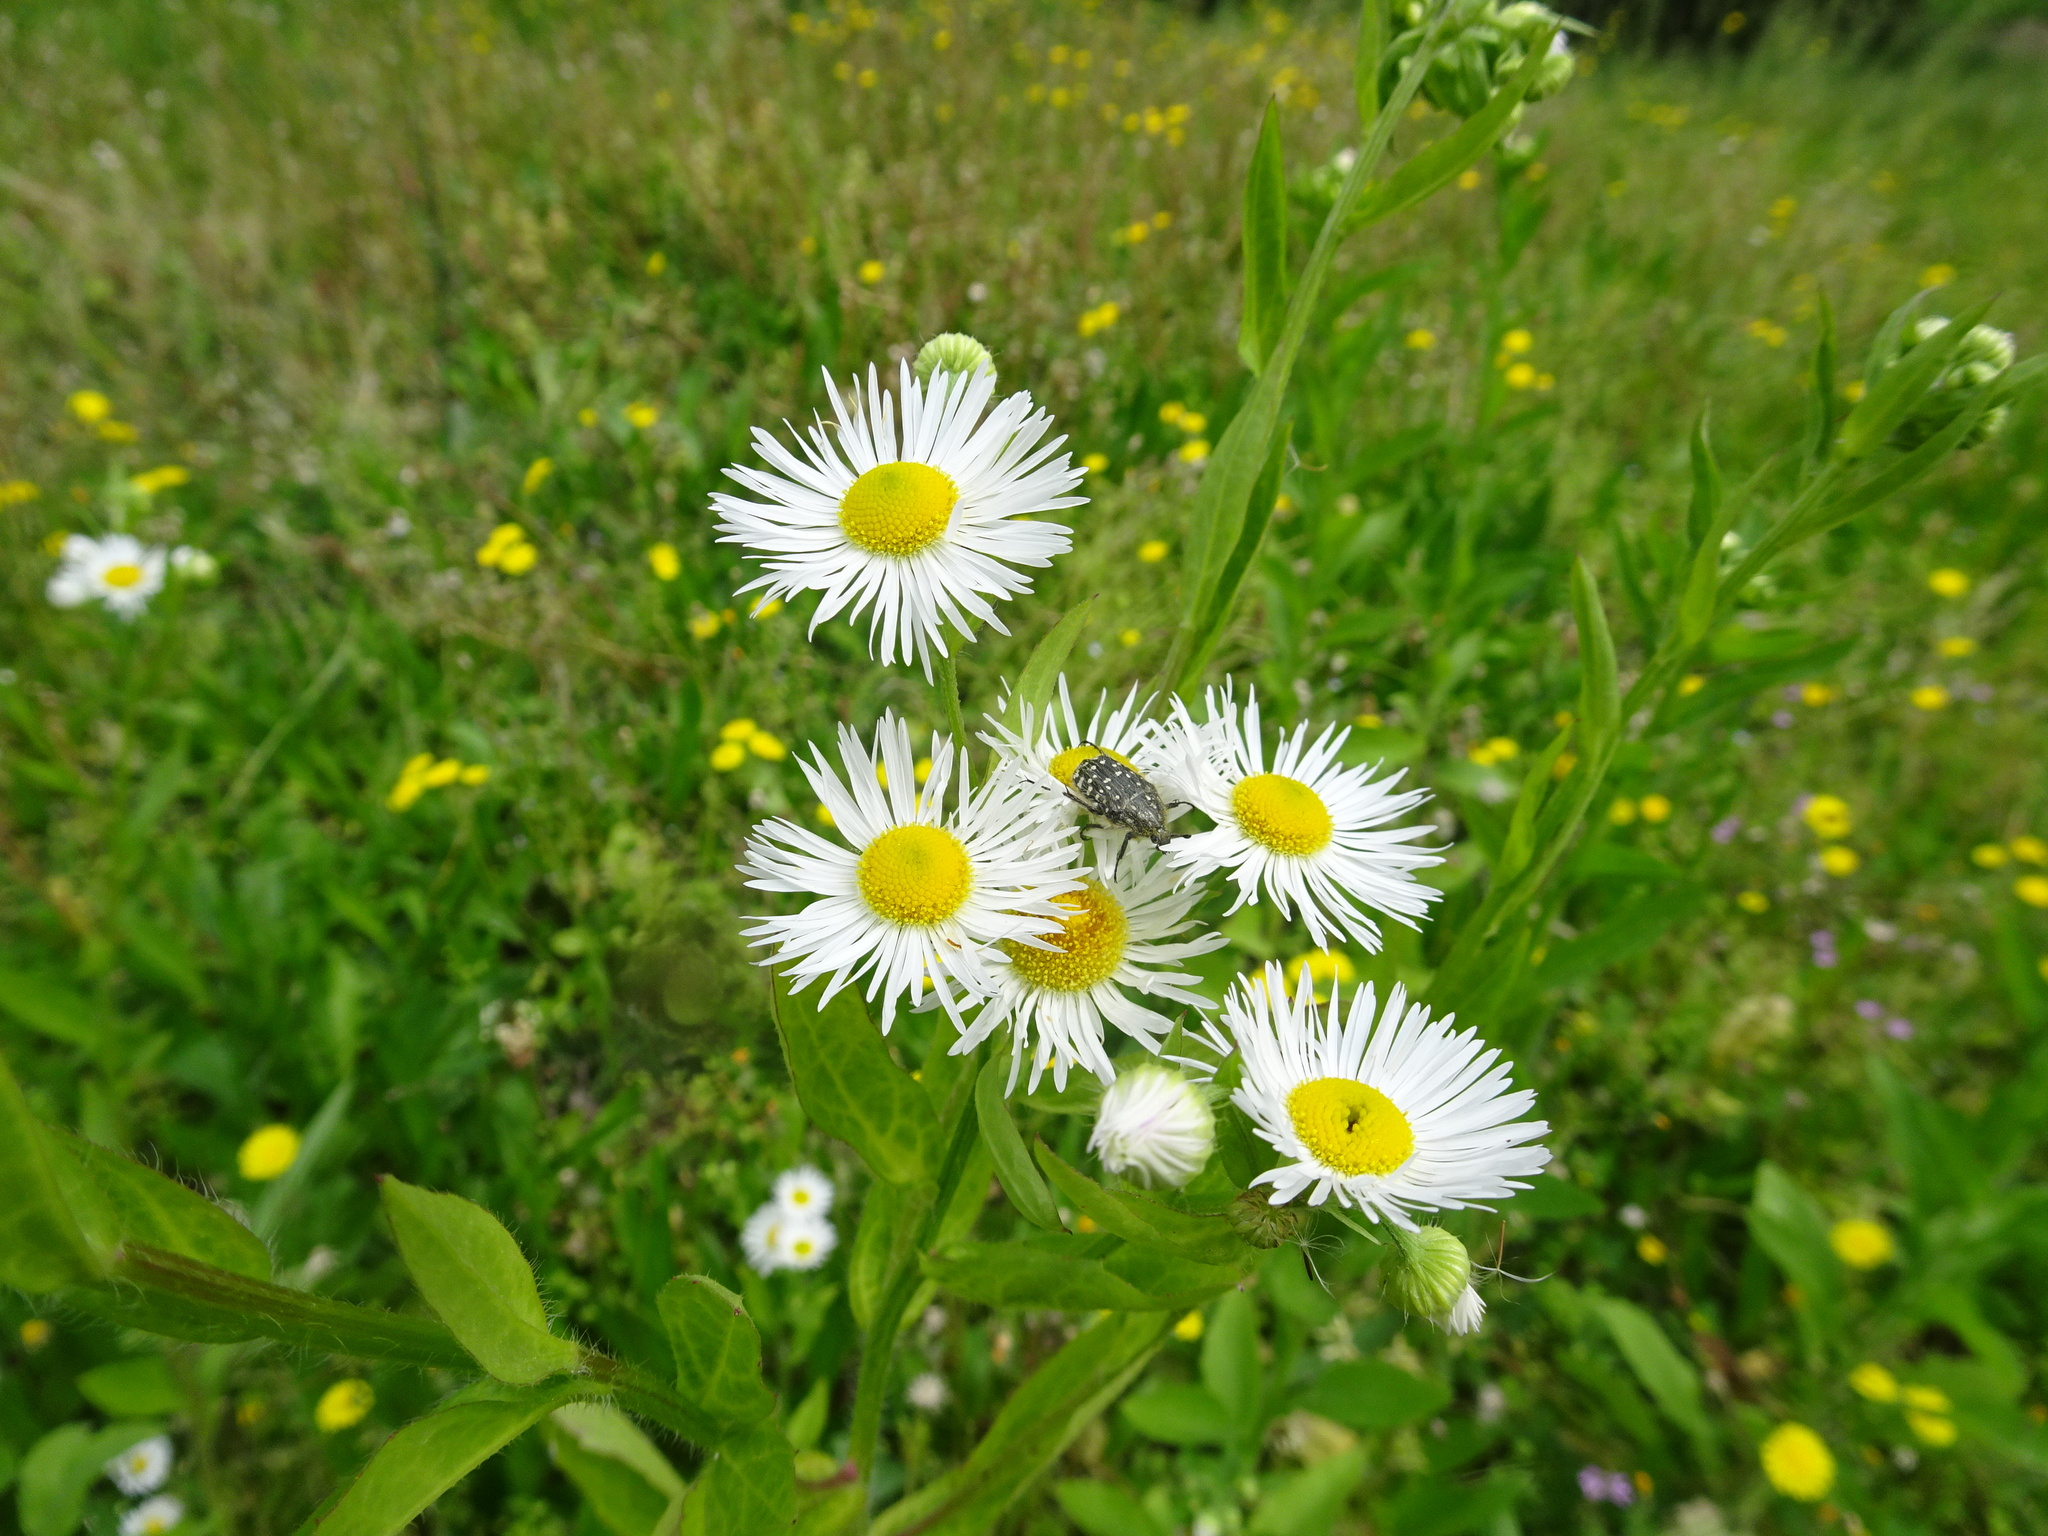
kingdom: Plantae
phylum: Tracheophyta
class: Magnoliopsida
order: Asterales
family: Asteraceae
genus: Erigeron
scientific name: Erigeron annuus
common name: Tall fleabane
